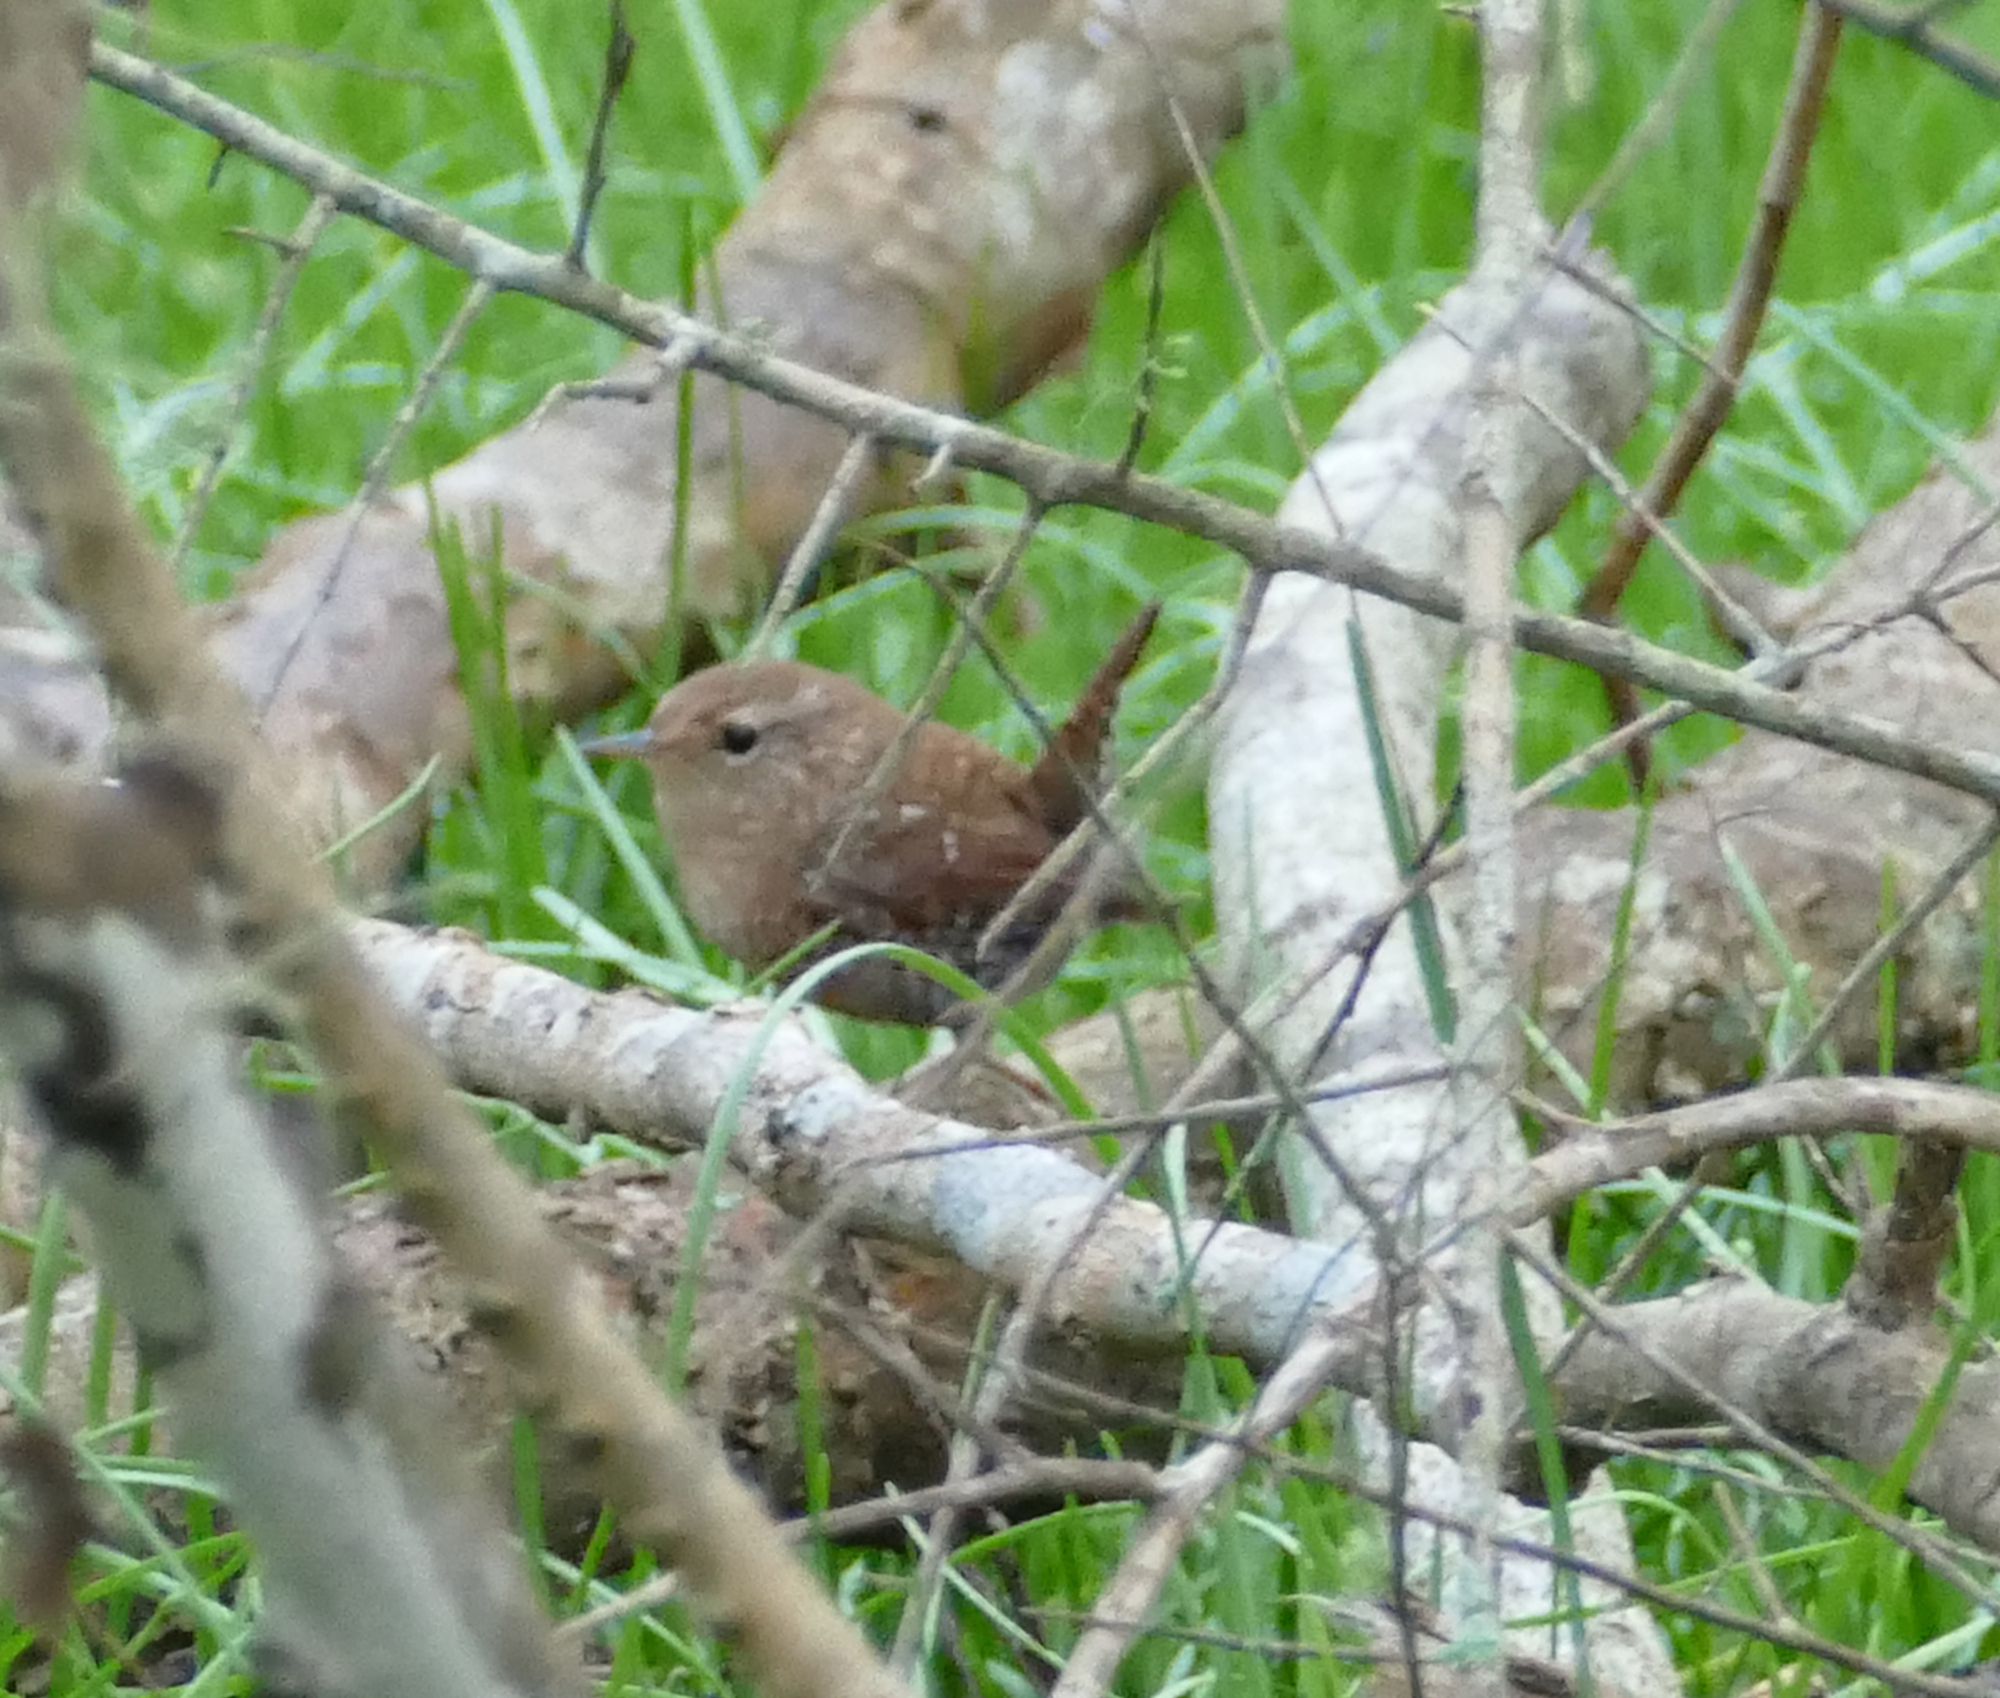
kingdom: Animalia
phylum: Chordata
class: Aves
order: Passeriformes
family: Troglodytidae
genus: Troglodytes
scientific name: Troglodytes hiemalis
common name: Winter wren
